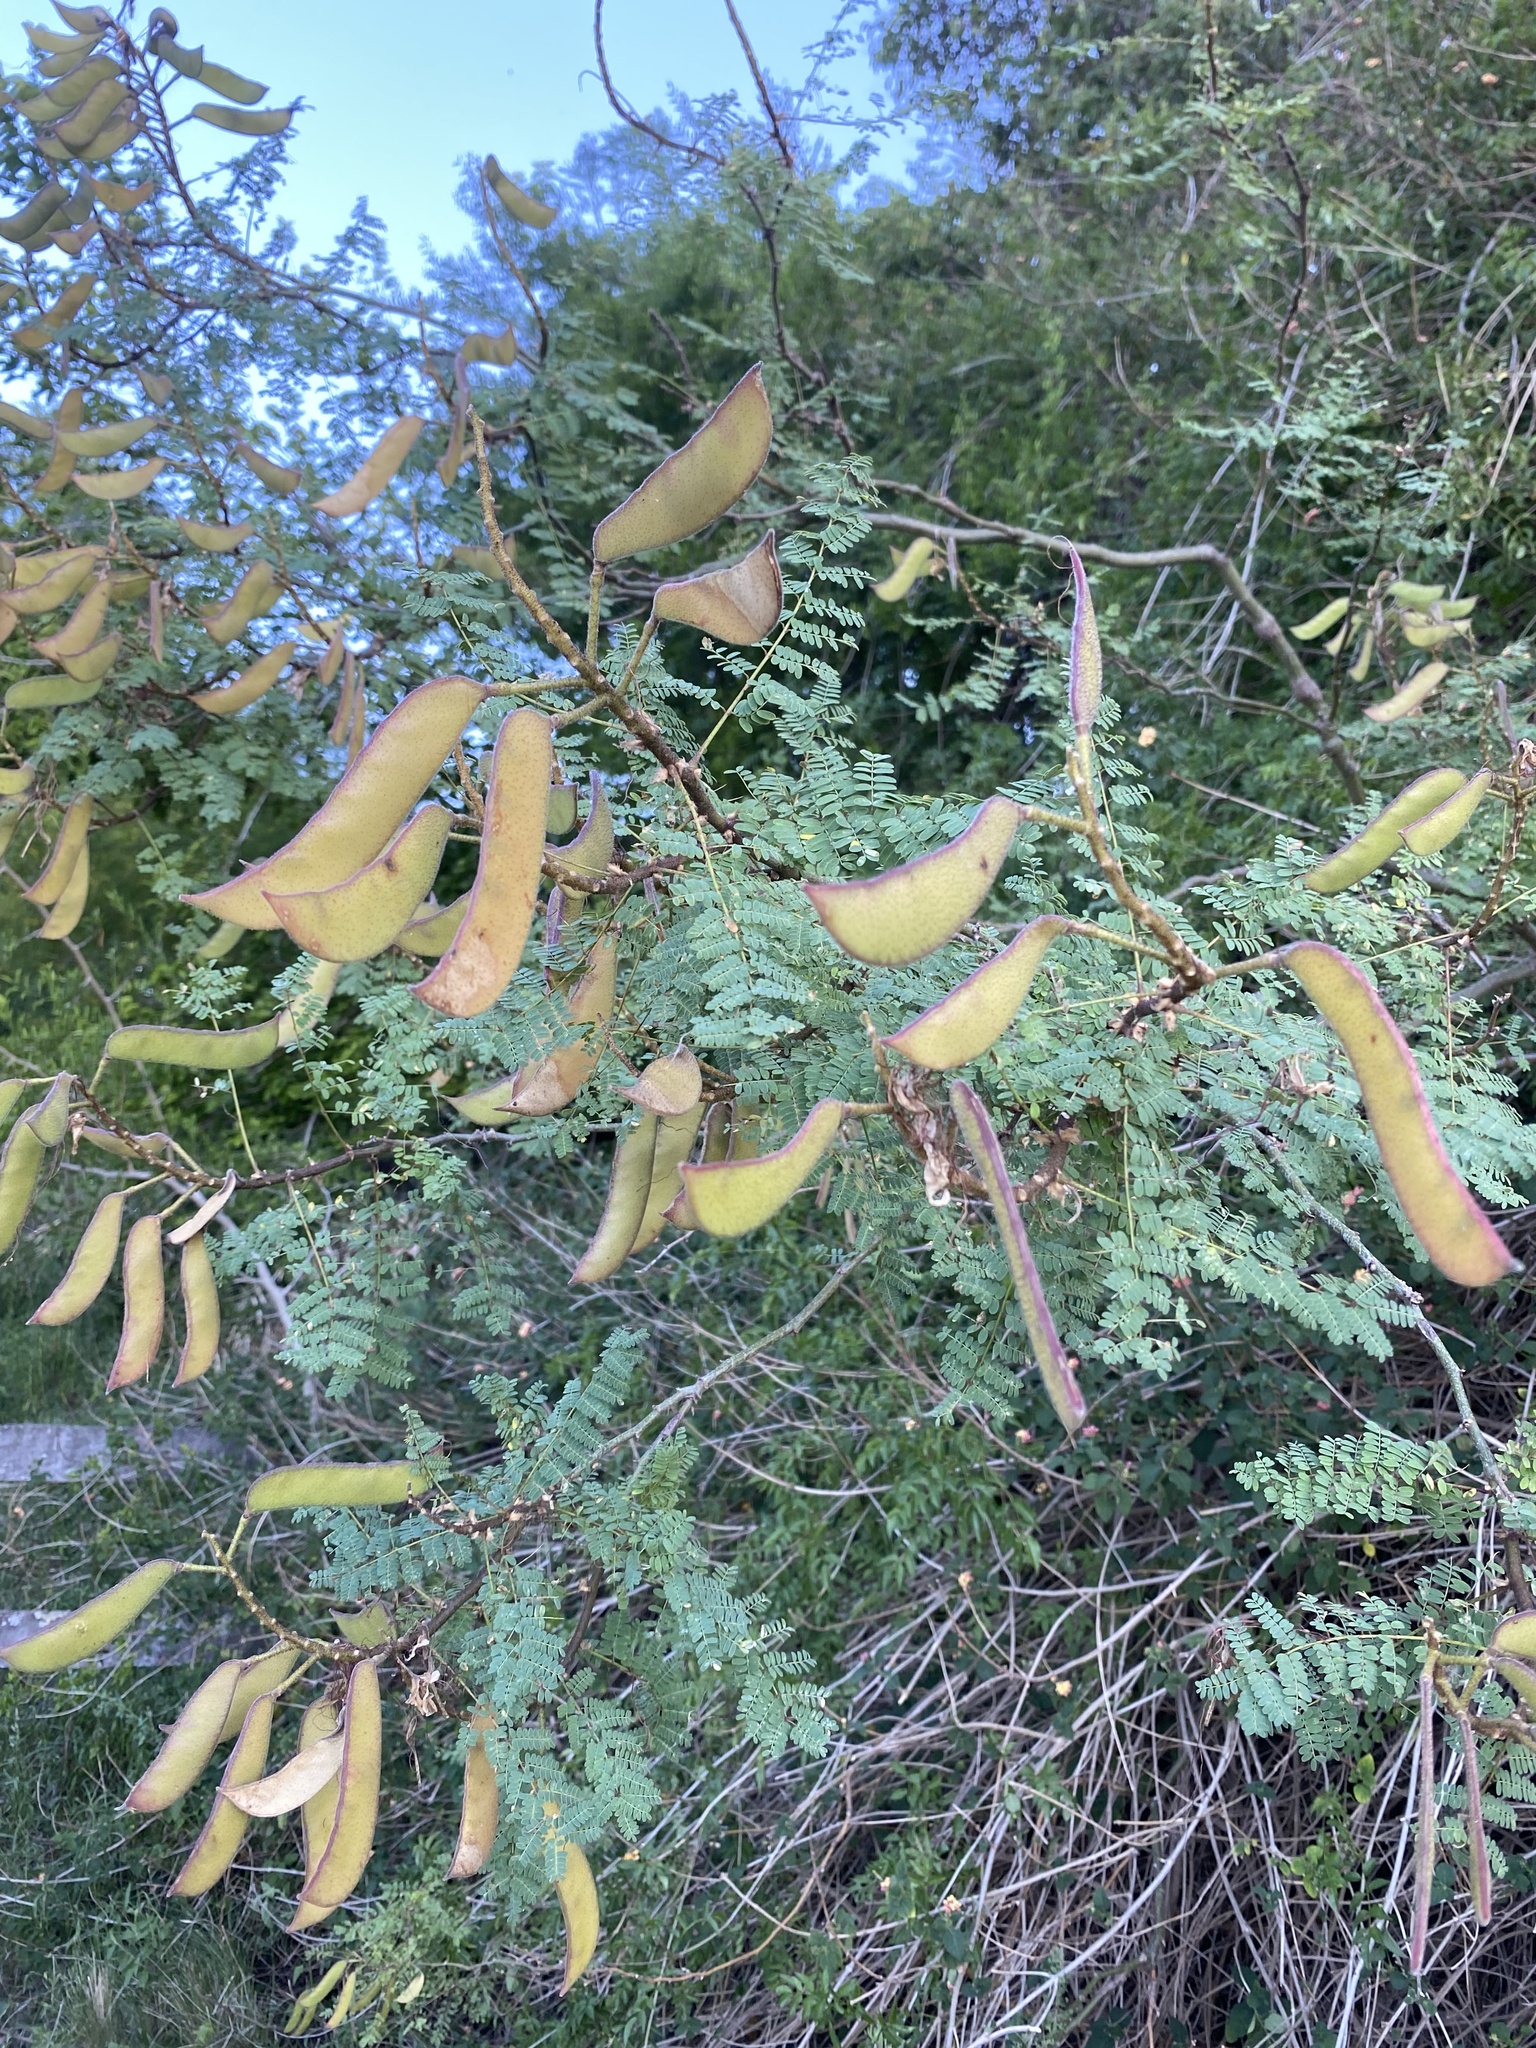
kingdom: Plantae
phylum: Tracheophyta
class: Magnoliopsida
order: Fabales
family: Fabaceae
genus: Erythrostemon
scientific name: Erythrostemon gilliesii
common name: Bird-of-paradise shrub
